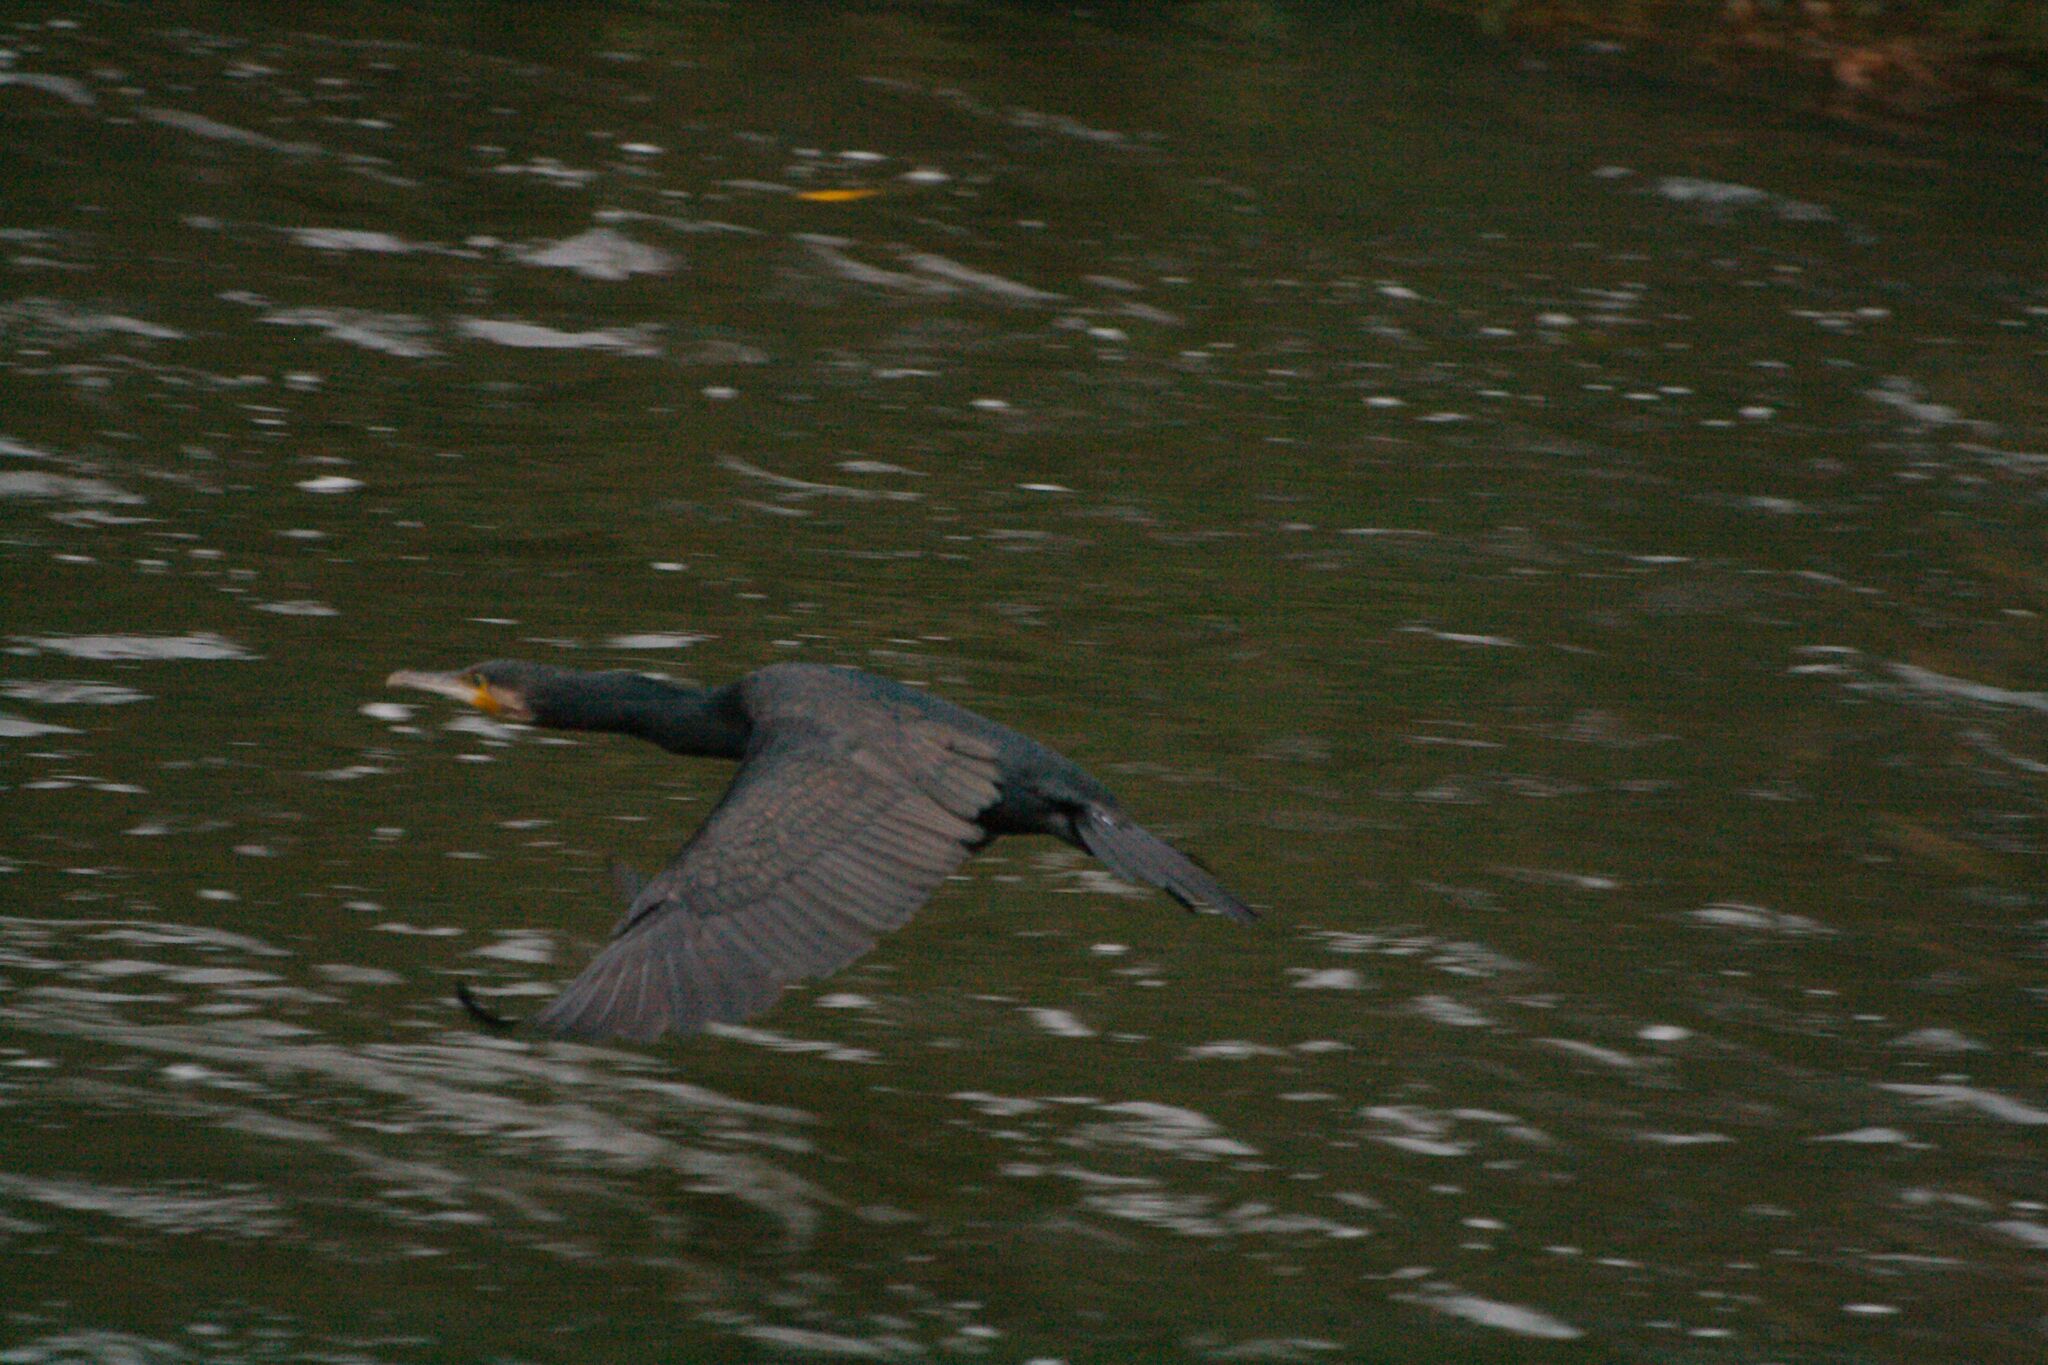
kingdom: Animalia
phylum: Chordata
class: Aves
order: Suliformes
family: Phalacrocoracidae
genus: Phalacrocorax
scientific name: Phalacrocorax carbo
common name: Great cormorant
